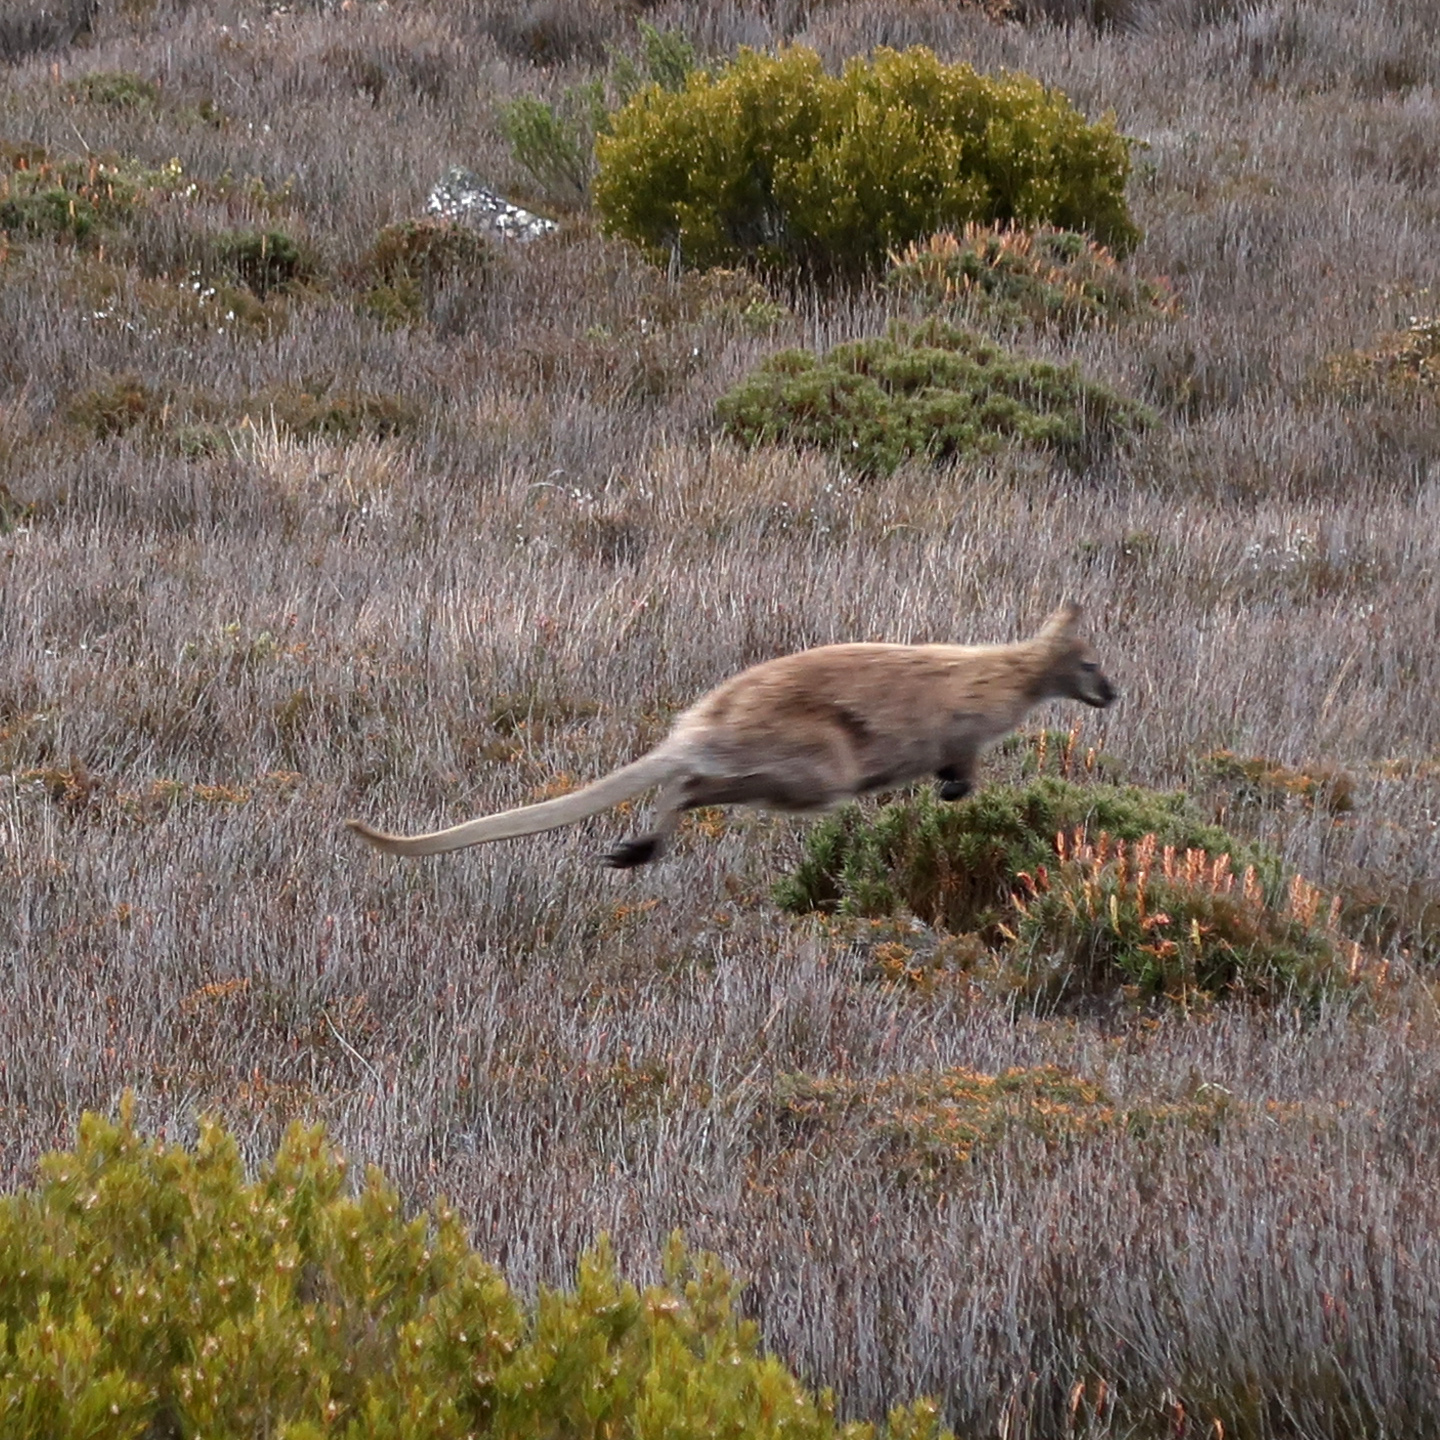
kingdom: Animalia
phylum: Chordata
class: Mammalia
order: Diprotodontia
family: Macropodidae
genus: Notamacropus
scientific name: Notamacropus rufogriseus
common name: Red-necked wallaby
